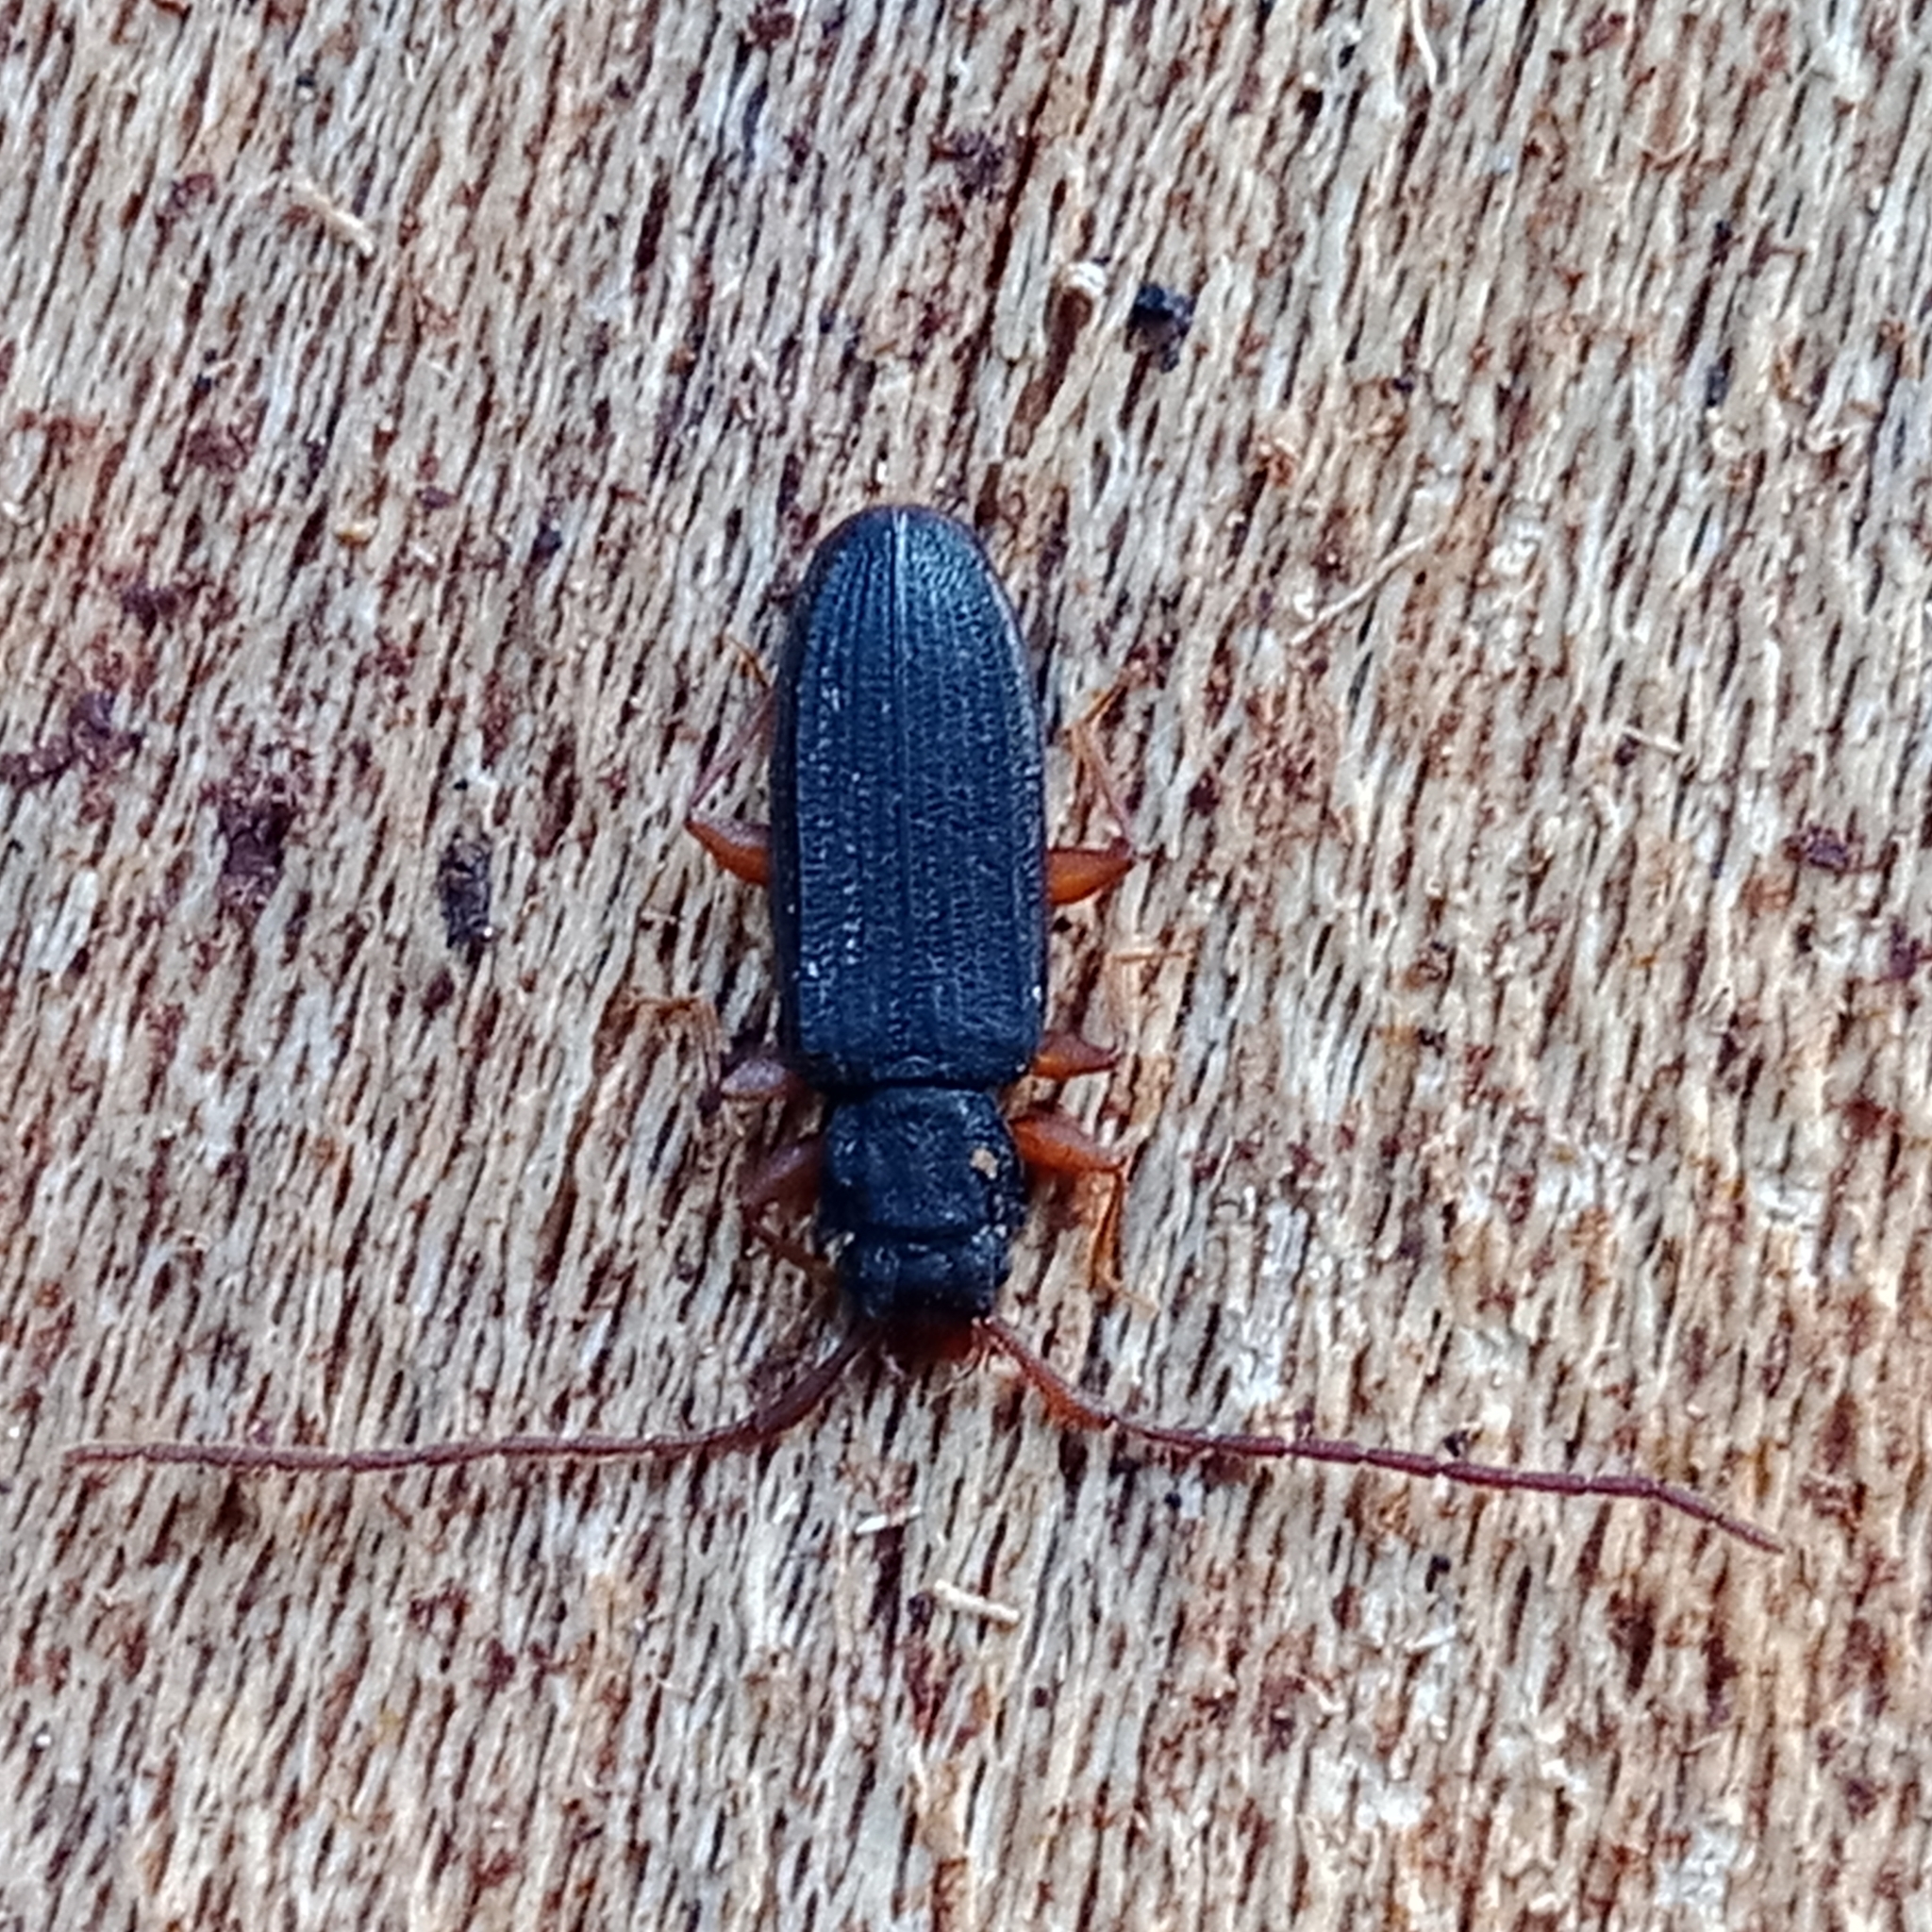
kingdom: Animalia
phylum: Arthropoda
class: Insecta
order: Coleoptera
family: Silvanidae
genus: Uleiota
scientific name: Uleiota planatus
